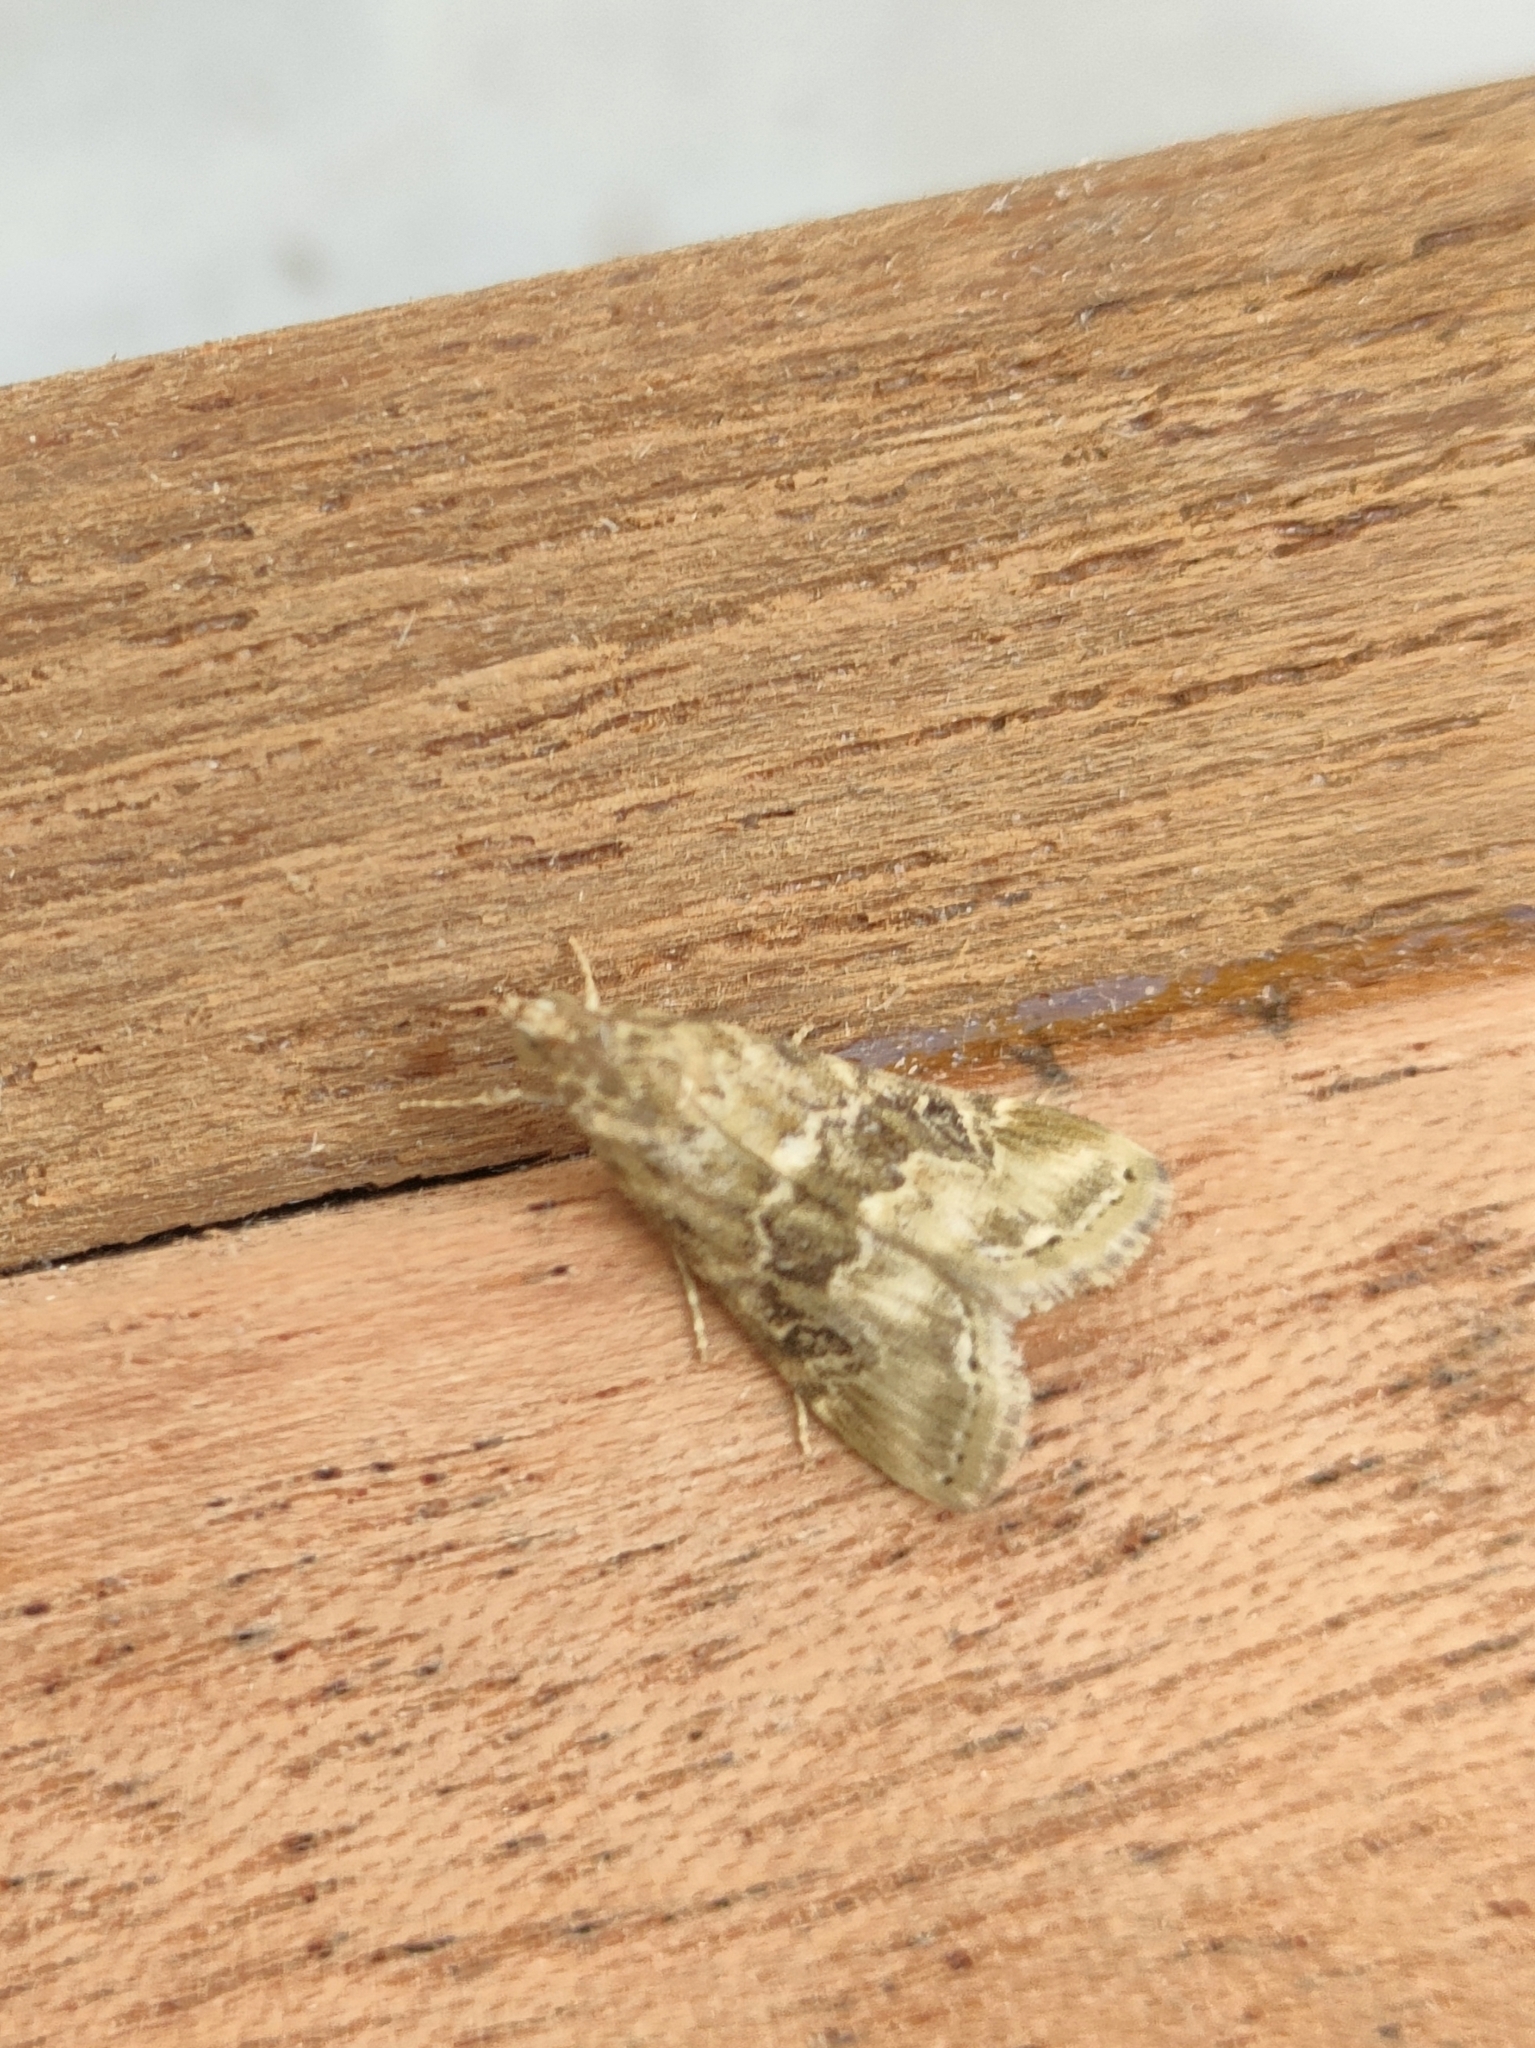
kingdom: Animalia
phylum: Arthropoda
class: Insecta
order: Lepidoptera
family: Crambidae
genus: Hellula
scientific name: Hellula undalis
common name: Cabbage webworm
